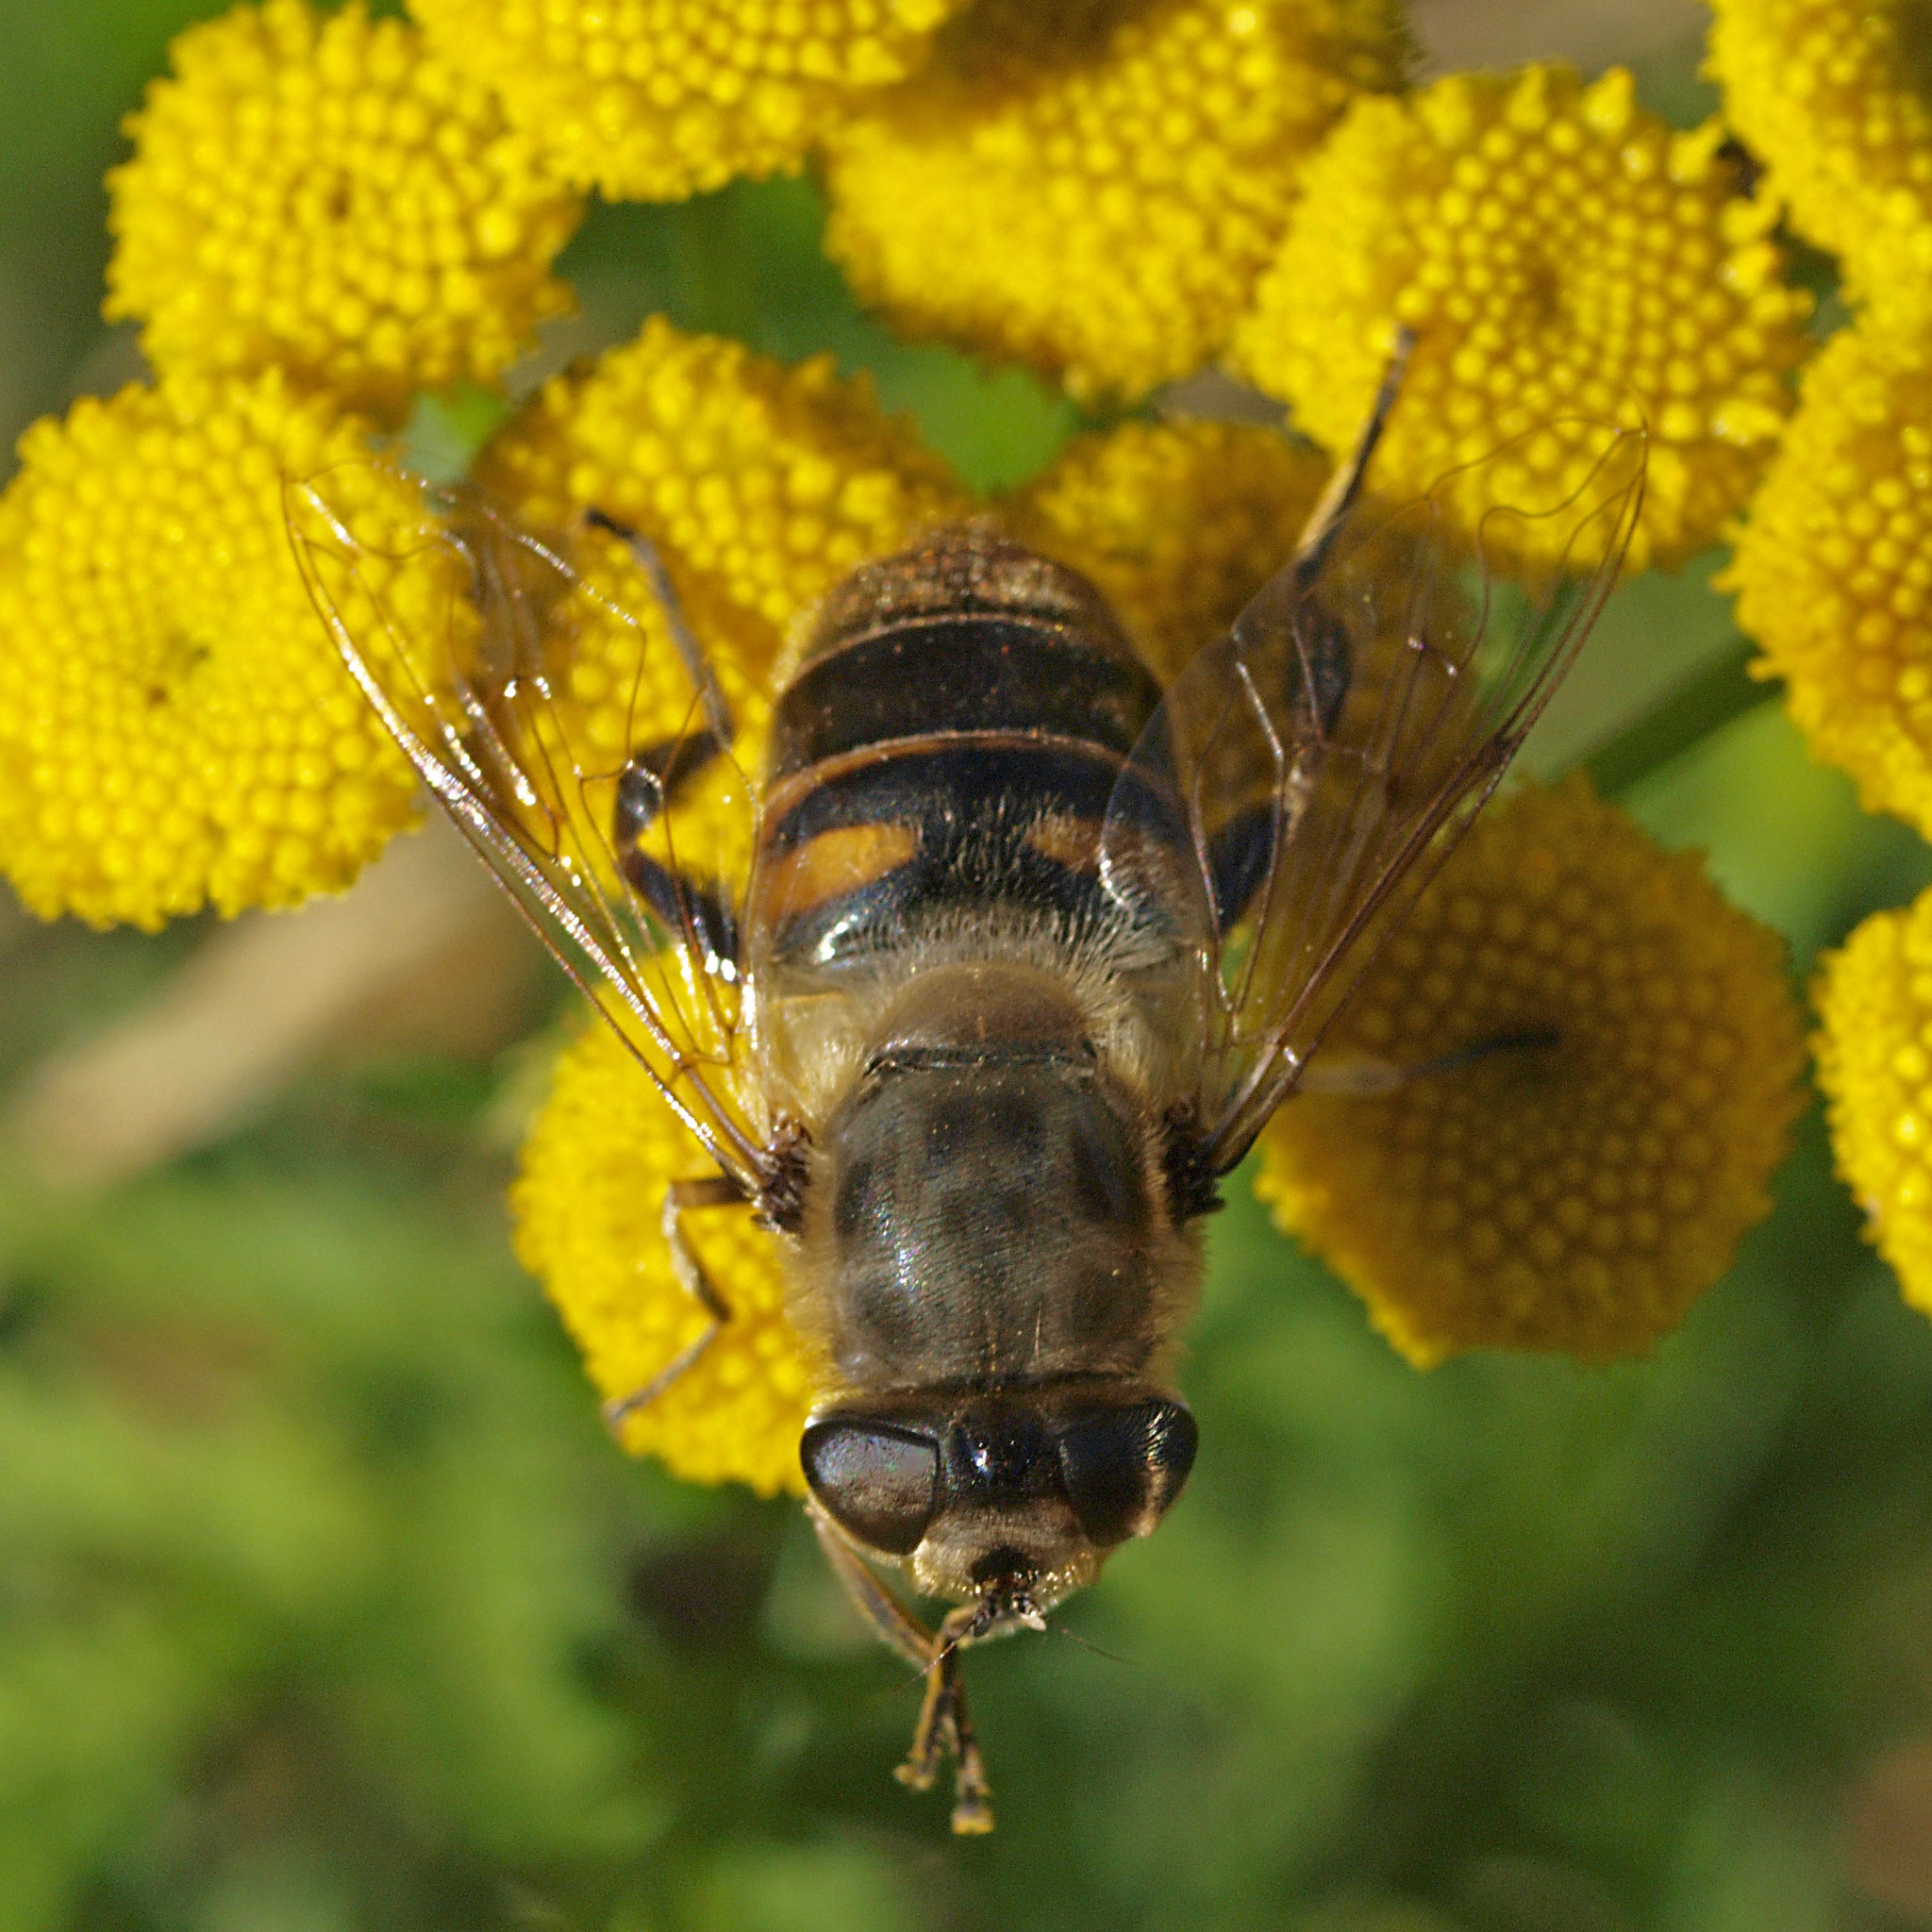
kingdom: Animalia
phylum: Arthropoda
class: Insecta
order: Diptera
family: Syrphidae
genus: Eristalis
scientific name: Eristalis tenax
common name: Drone fly
